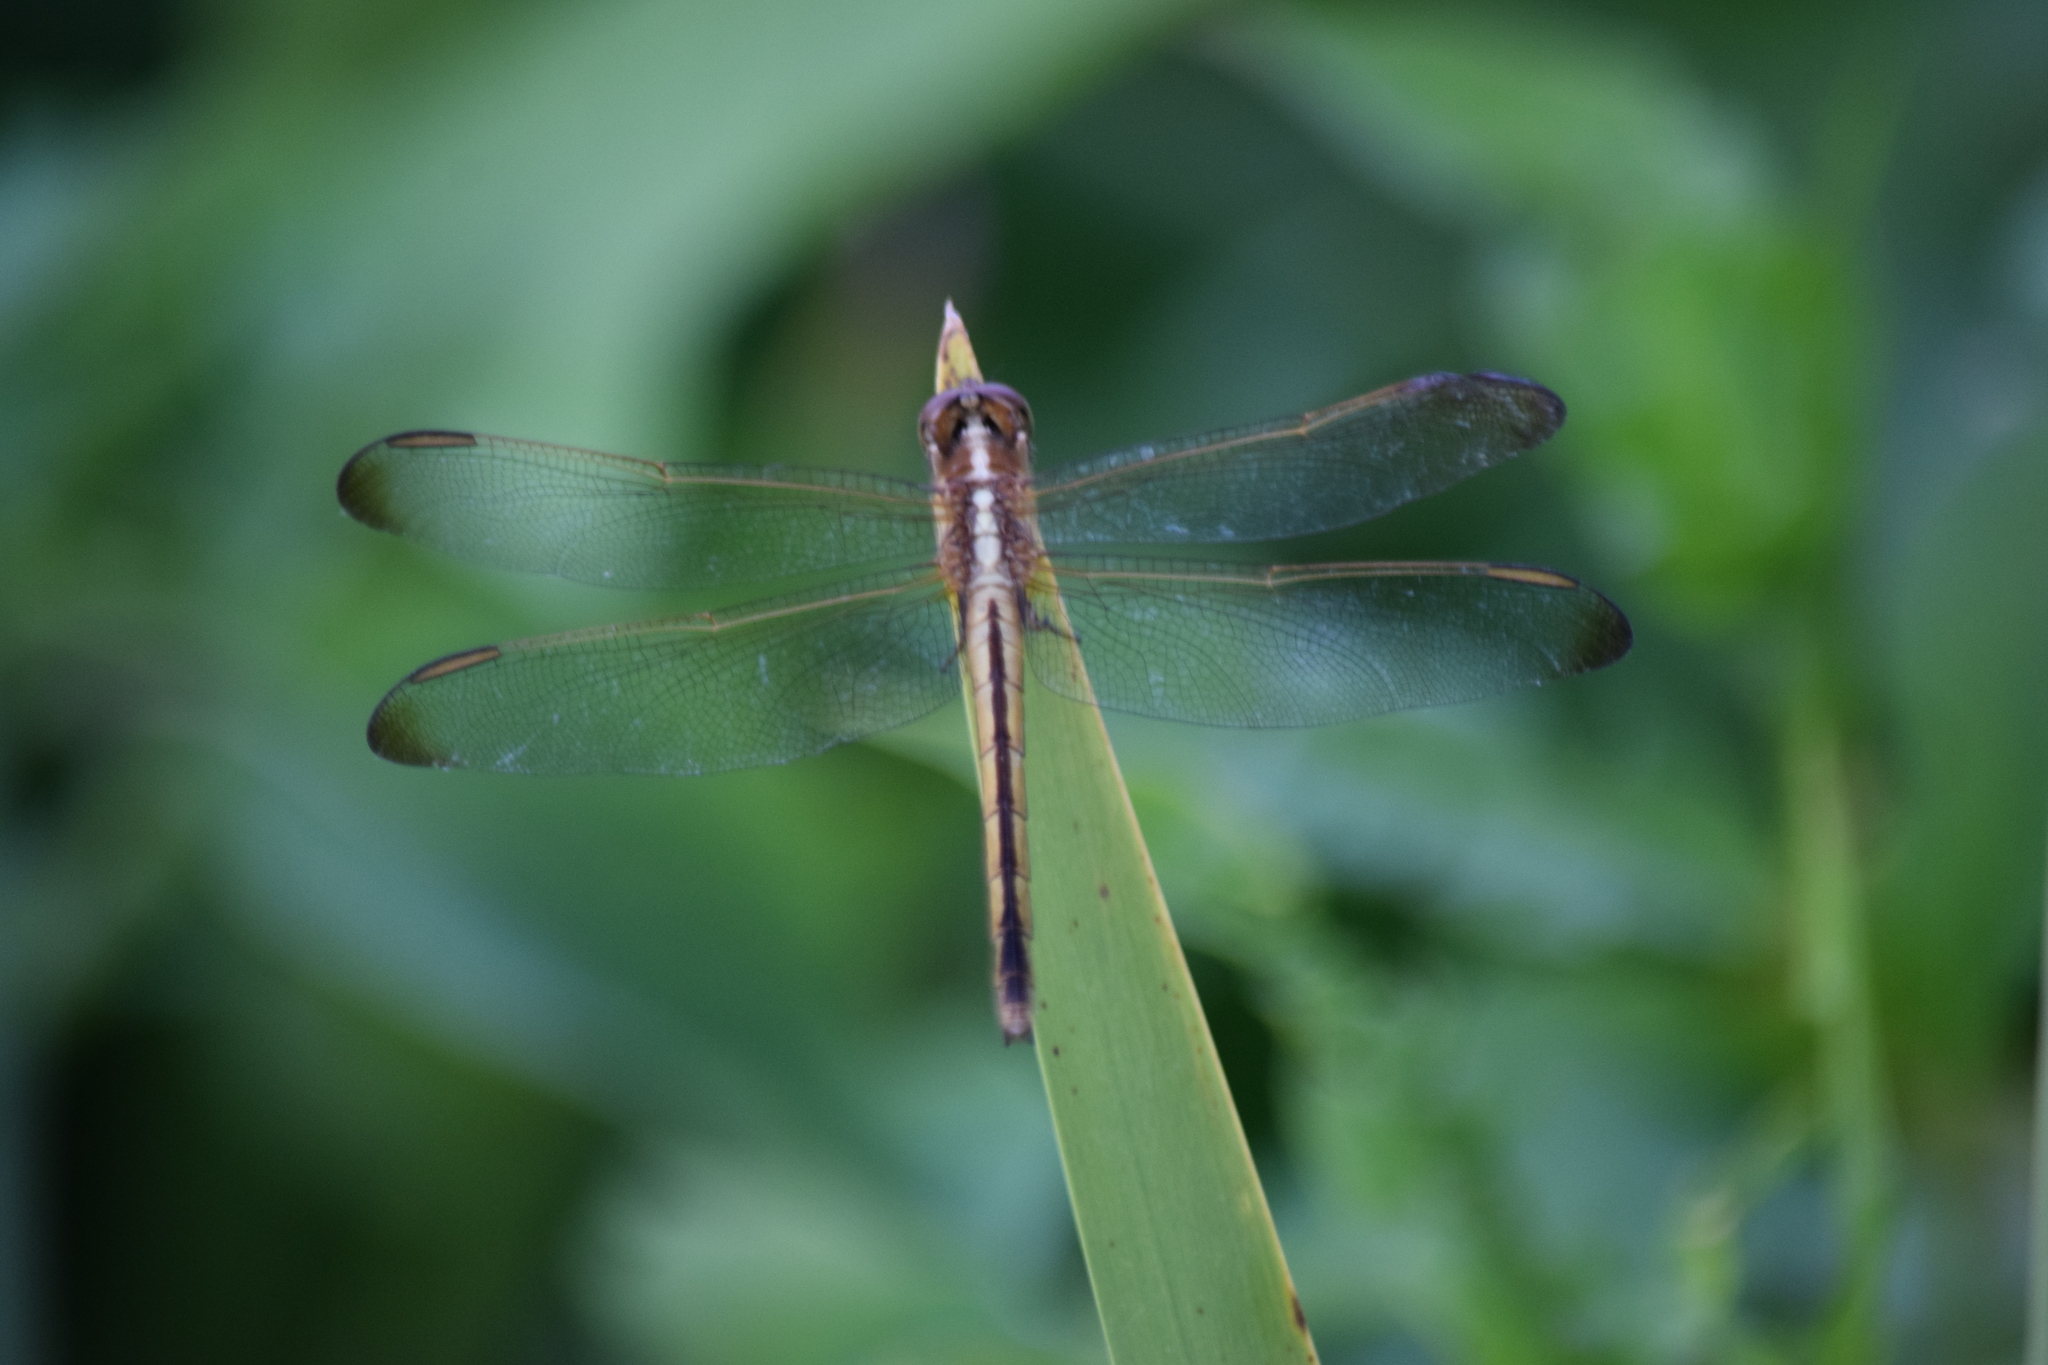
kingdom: Animalia
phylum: Arthropoda
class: Insecta
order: Odonata
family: Libellulidae
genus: Libellula
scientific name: Libellula needhami
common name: Needham's skimmer
